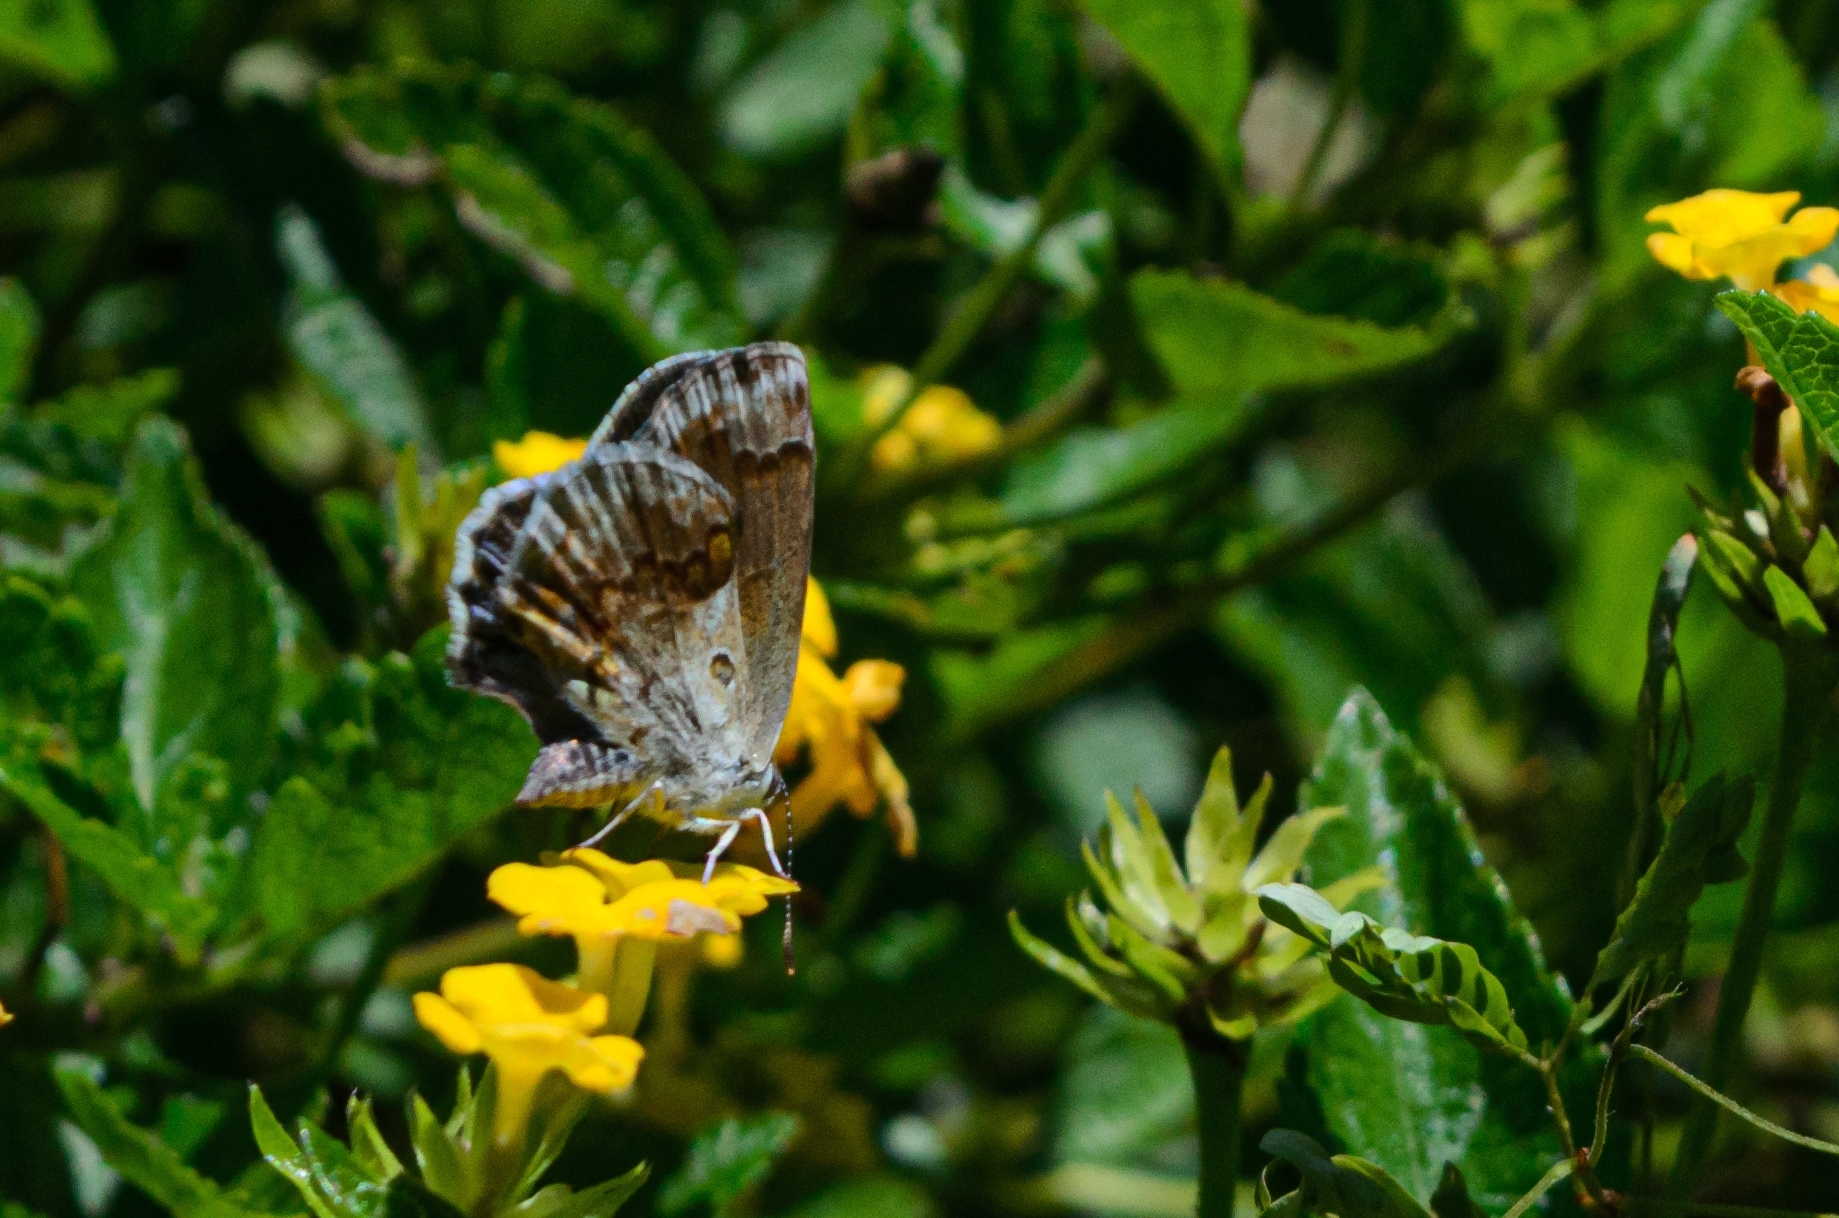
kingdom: Animalia
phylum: Arthropoda
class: Insecta
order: Lepidoptera
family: Lycaenidae
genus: Strymon
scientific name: Strymon bazochii
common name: Lantana scrub-hairstreak
